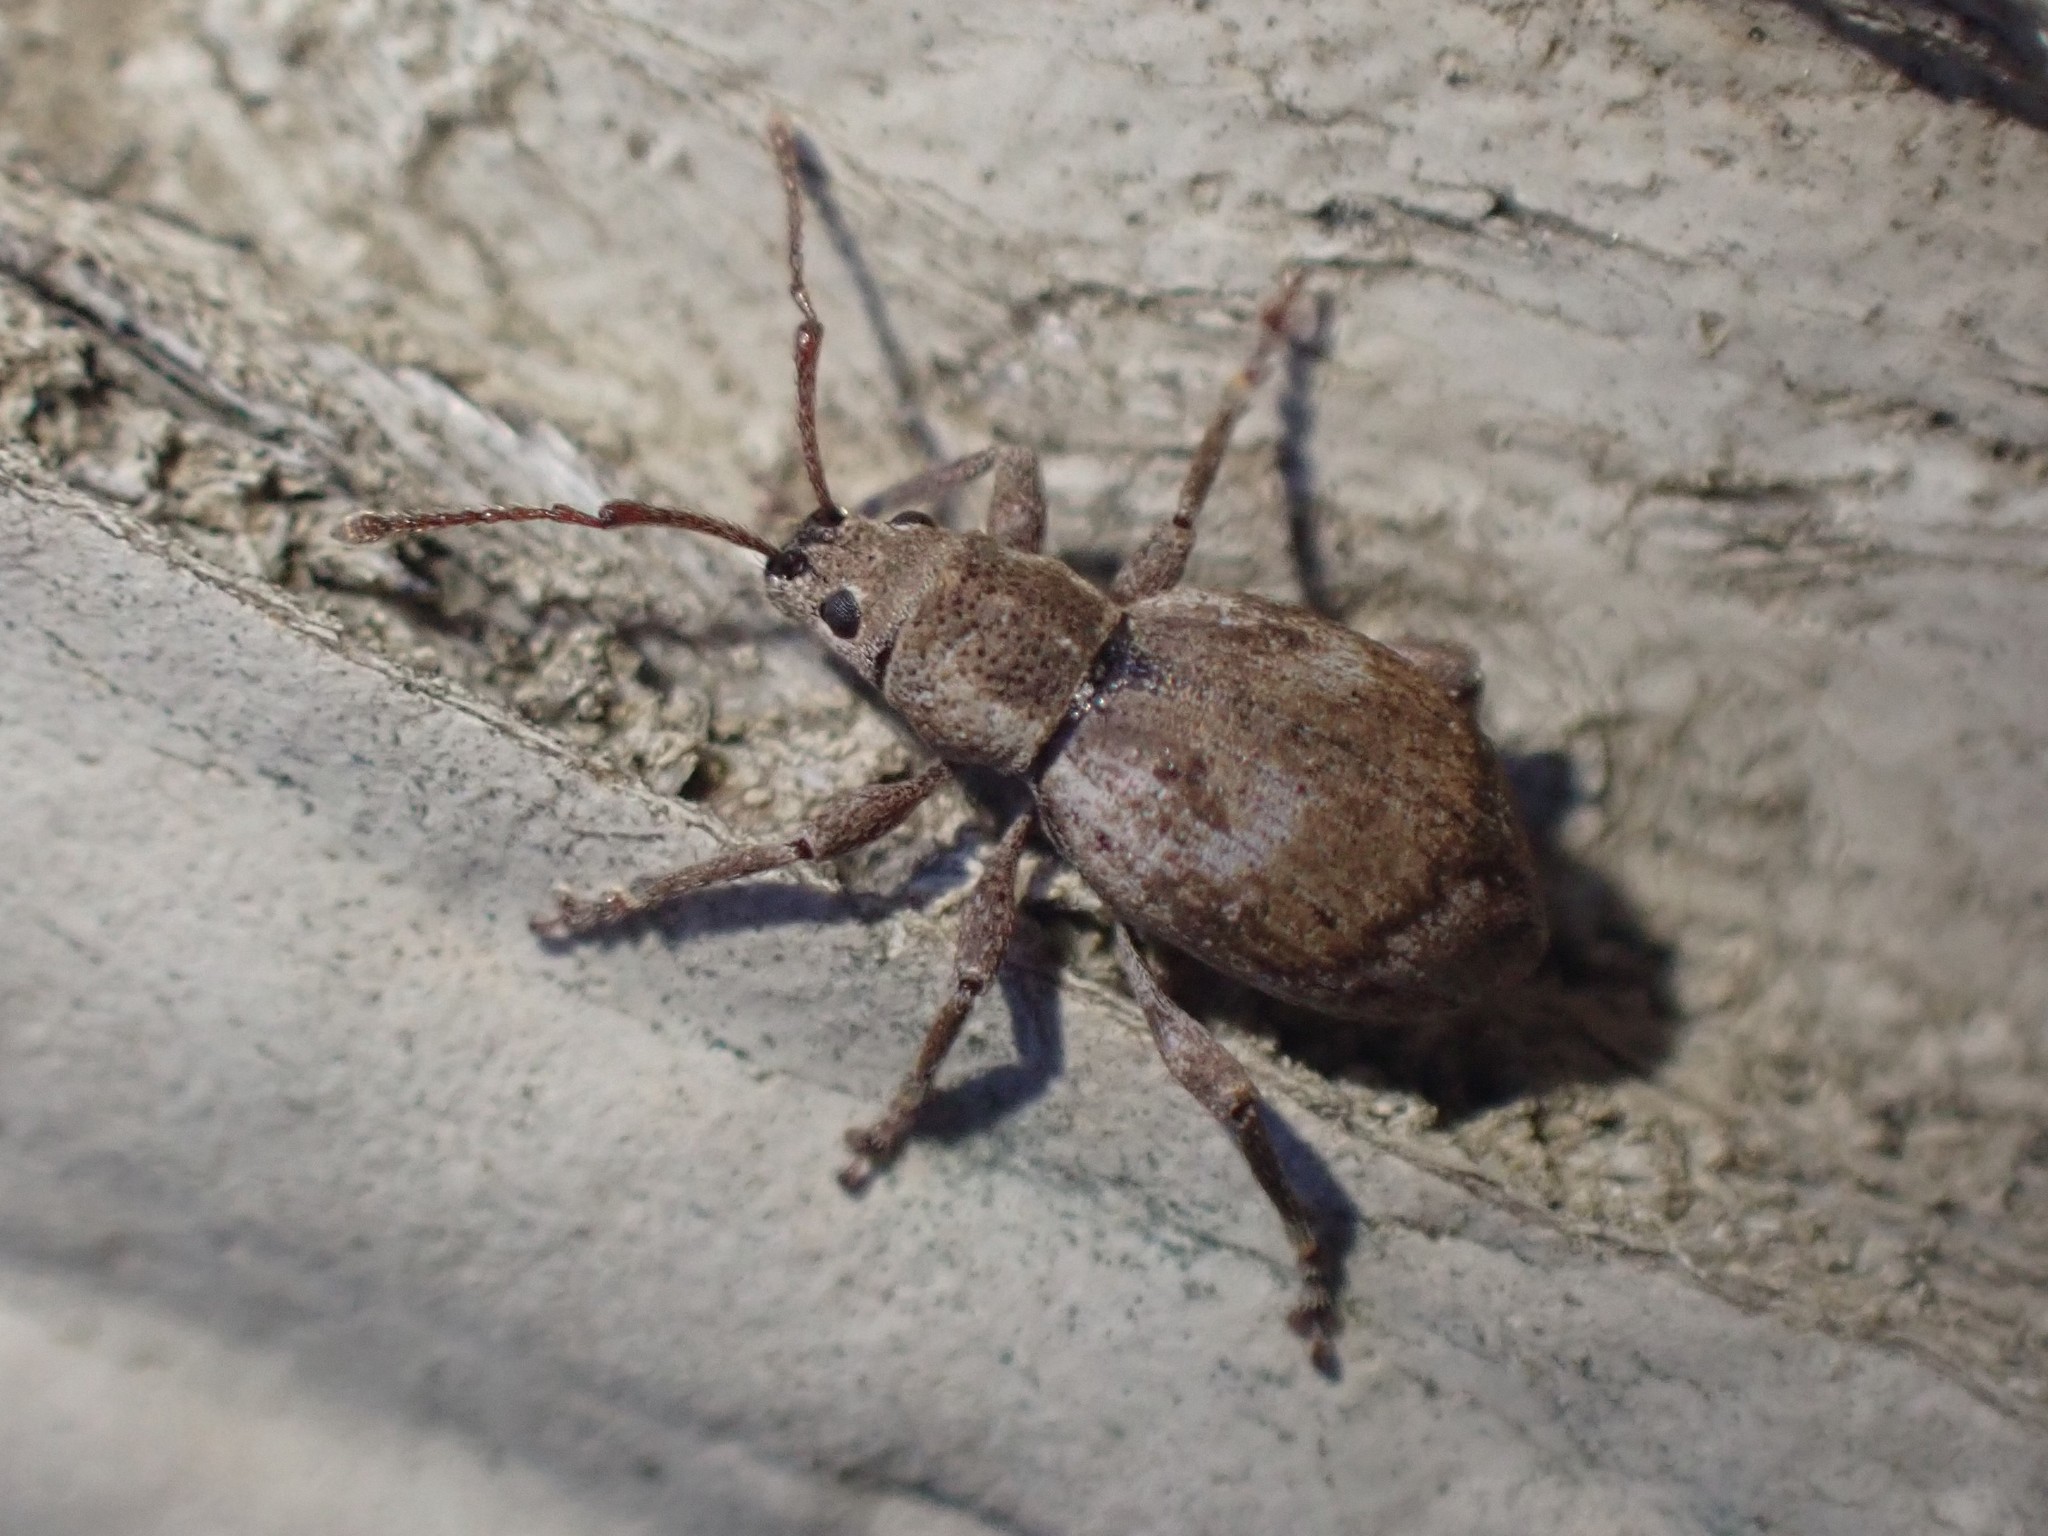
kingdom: Animalia
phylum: Arthropoda
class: Insecta
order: Coleoptera
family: Curculionidae
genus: Sciopithes
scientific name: Sciopithes obscurus
